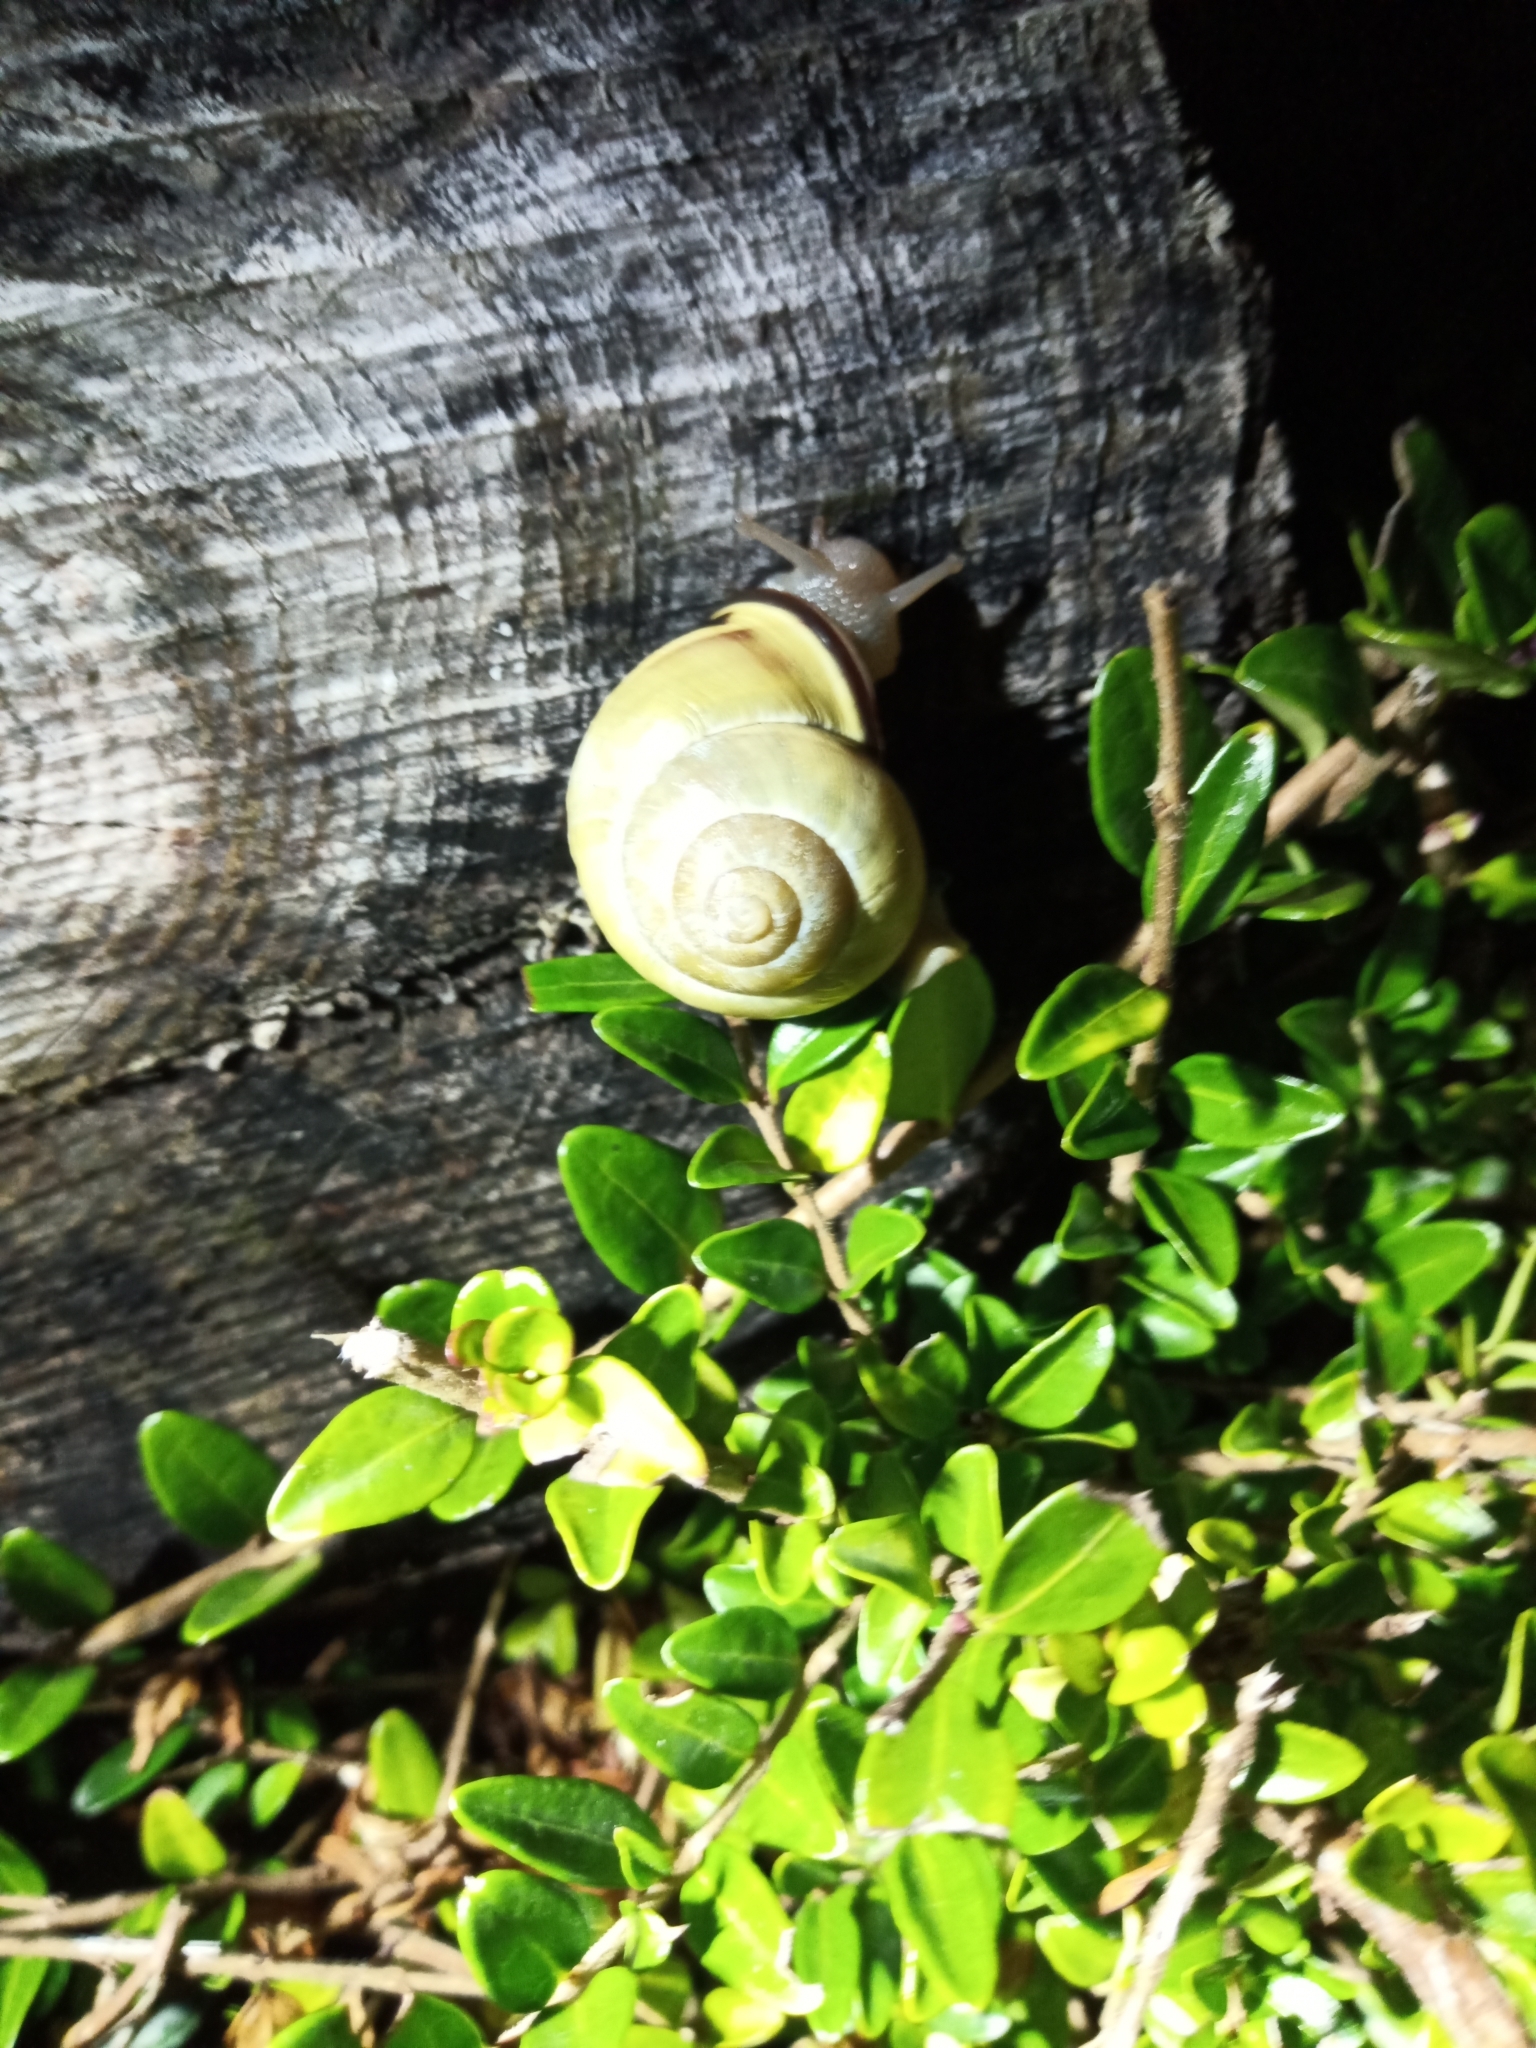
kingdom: Animalia
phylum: Mollusca
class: Gastropoda
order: Stylommatophora
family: Helicidae
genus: Cepaea
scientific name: Cepaea nemoralis
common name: Grovesnail
